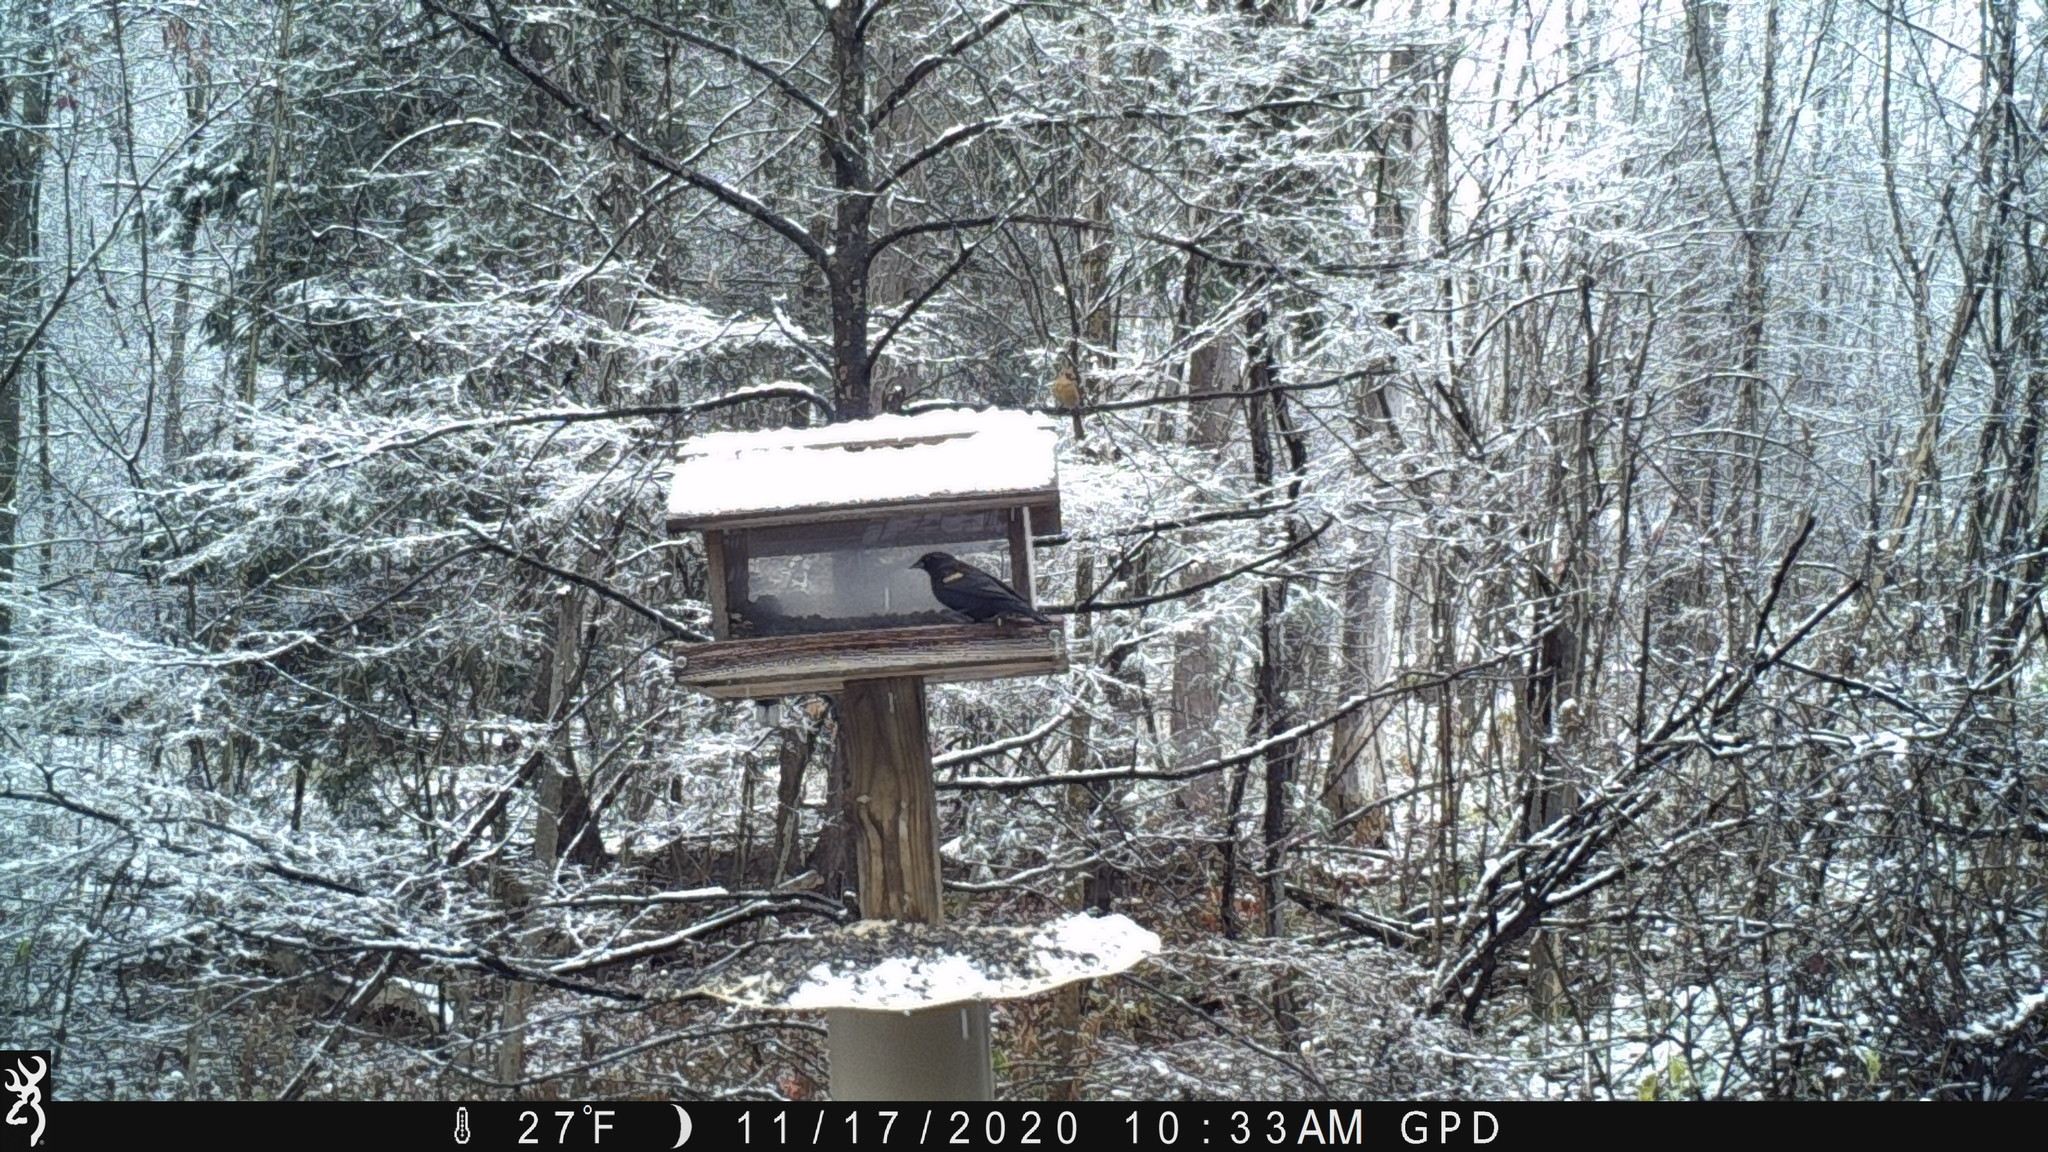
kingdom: Animalia
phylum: Chordata
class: Aves
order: Passeriformes
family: Icteridae
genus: Agelaius
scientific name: Agelaius phoeniceus
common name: Red-winged blackbird
